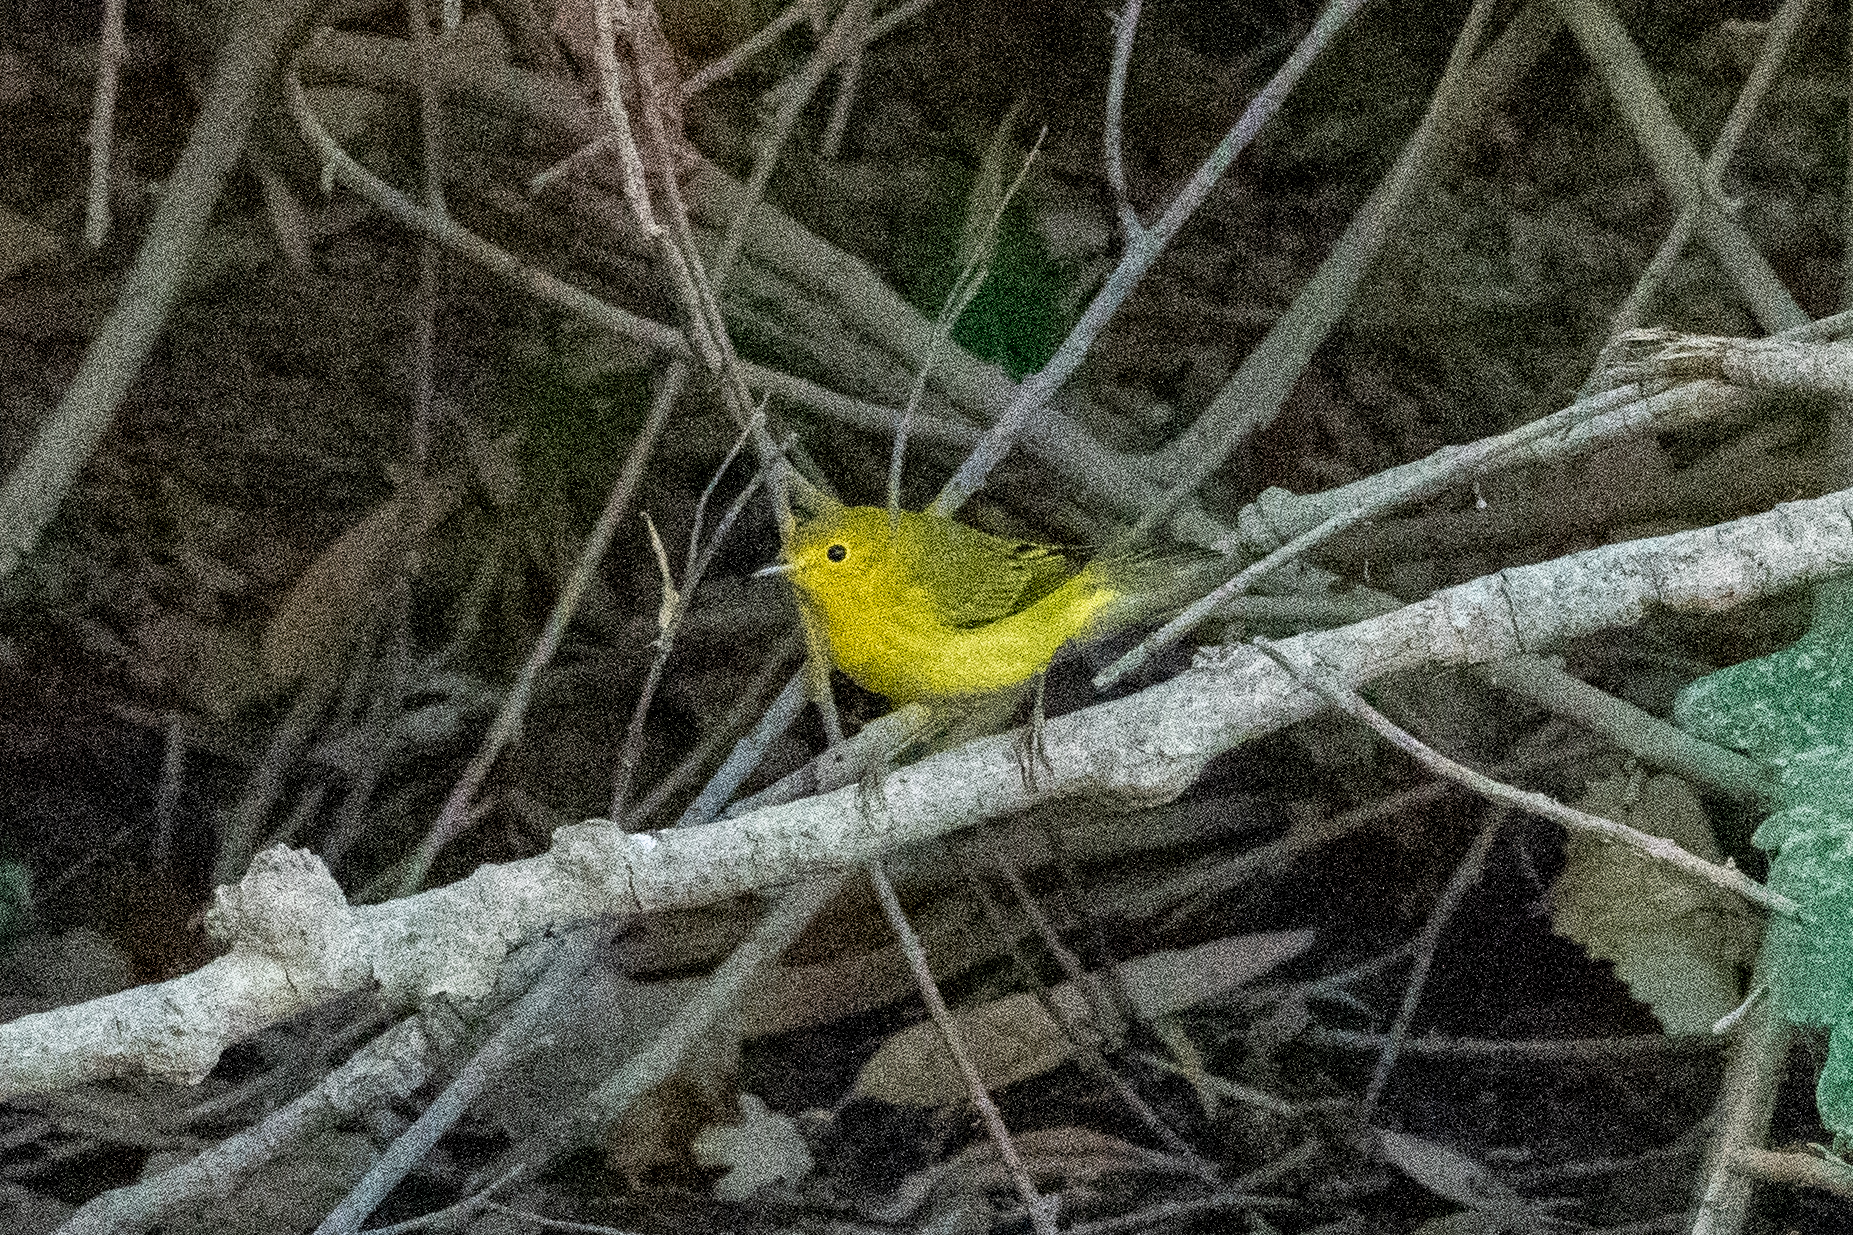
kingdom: Animalia
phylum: Chordata
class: Aves
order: Passeriformes
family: Parulidae
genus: Setophaga
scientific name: Setophaga petechia
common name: Yellow warbler
